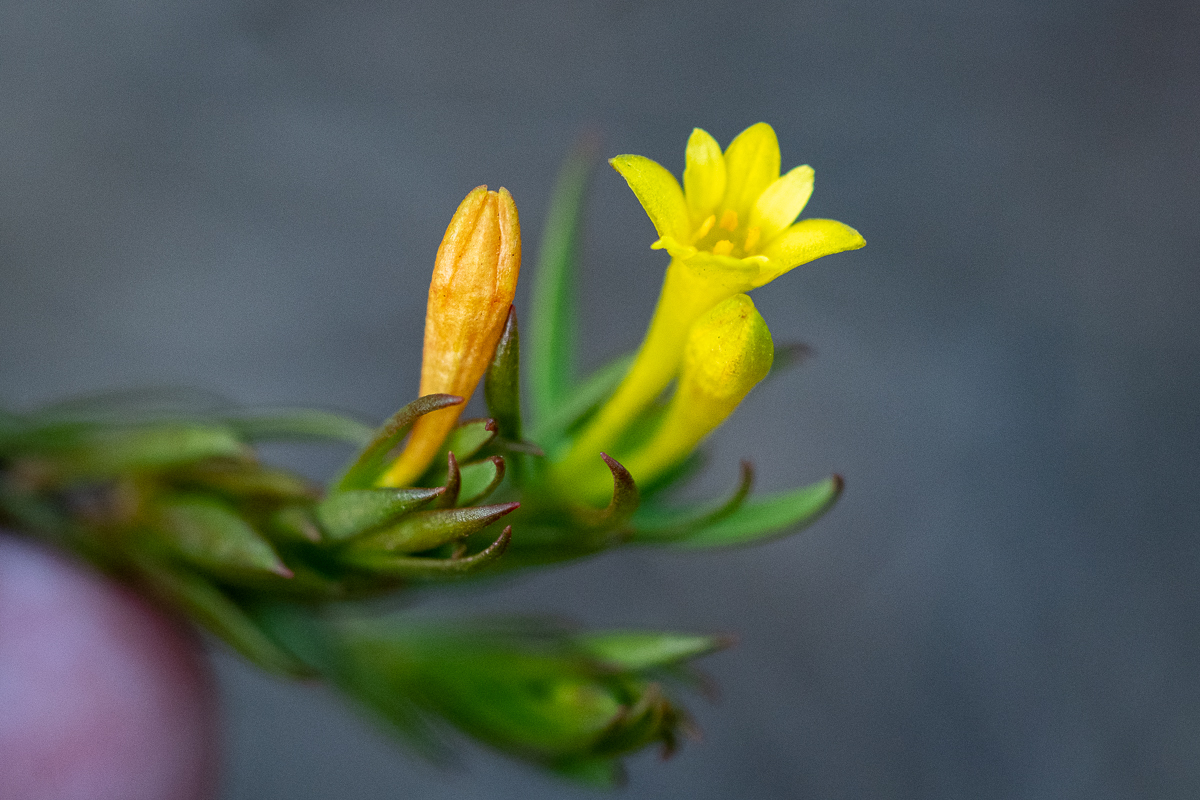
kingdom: Plantae
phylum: Tracheophyta
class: Magnoliopsida
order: Malvales
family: Thymelaeaceae
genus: Gnidia
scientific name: Gnidia juniperifolia
